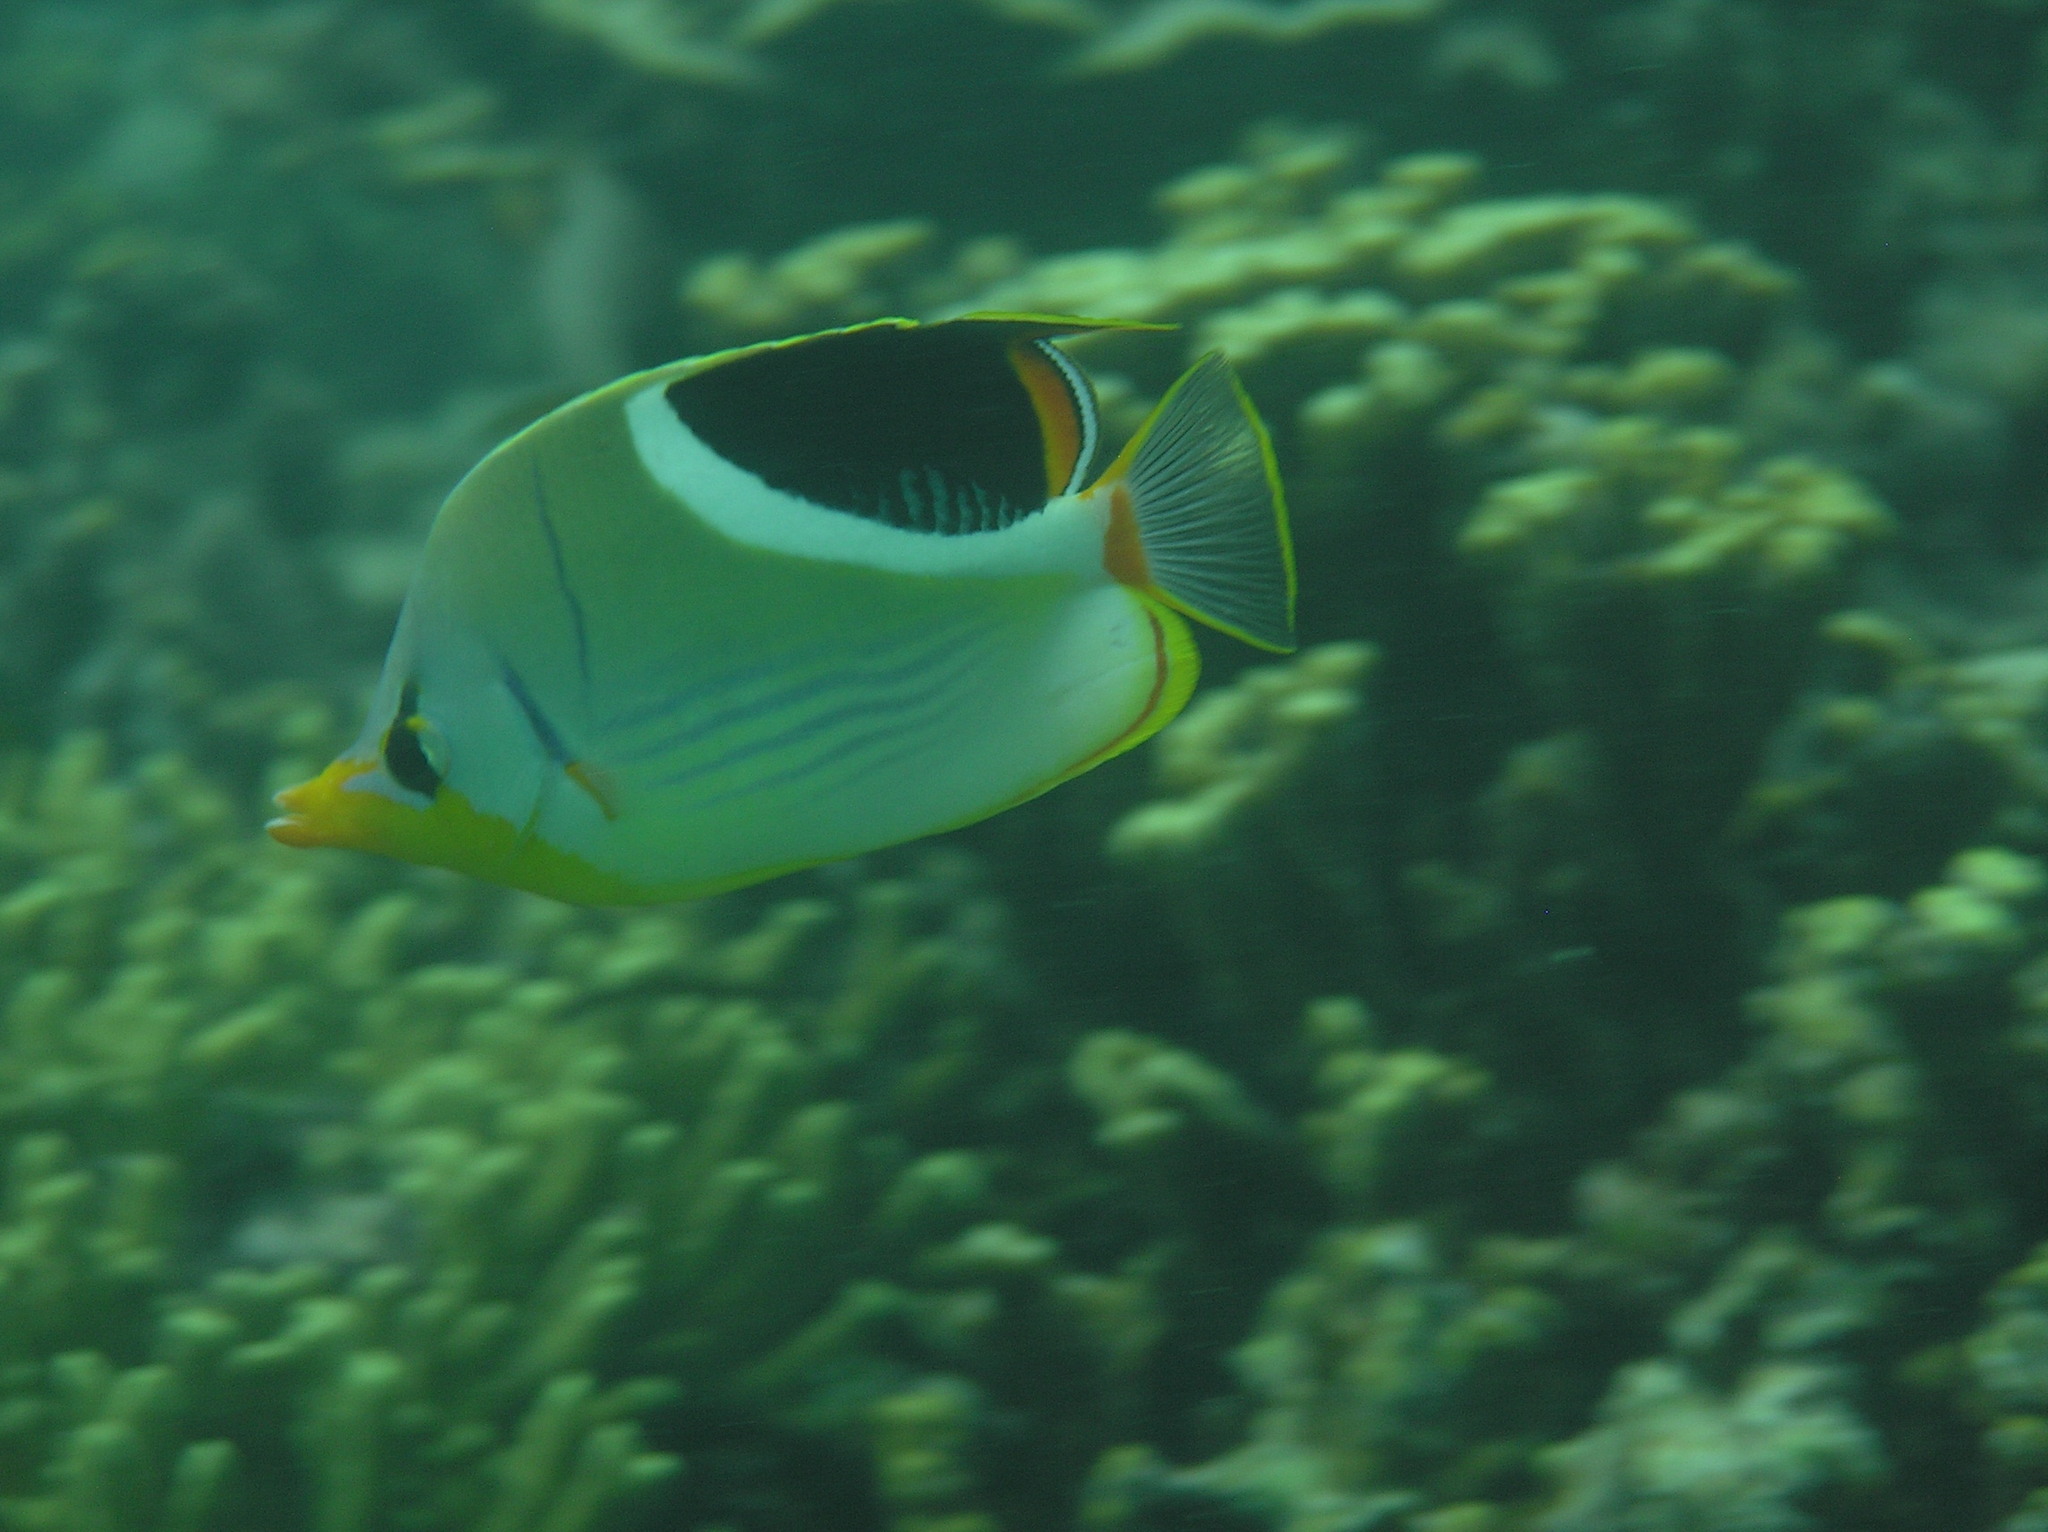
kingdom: Animalia
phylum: Chordata
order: Perciformes
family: Chaetodontidae
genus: Chaetodon
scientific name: Chaetodon ephippium
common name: Saddled butterflyfish
